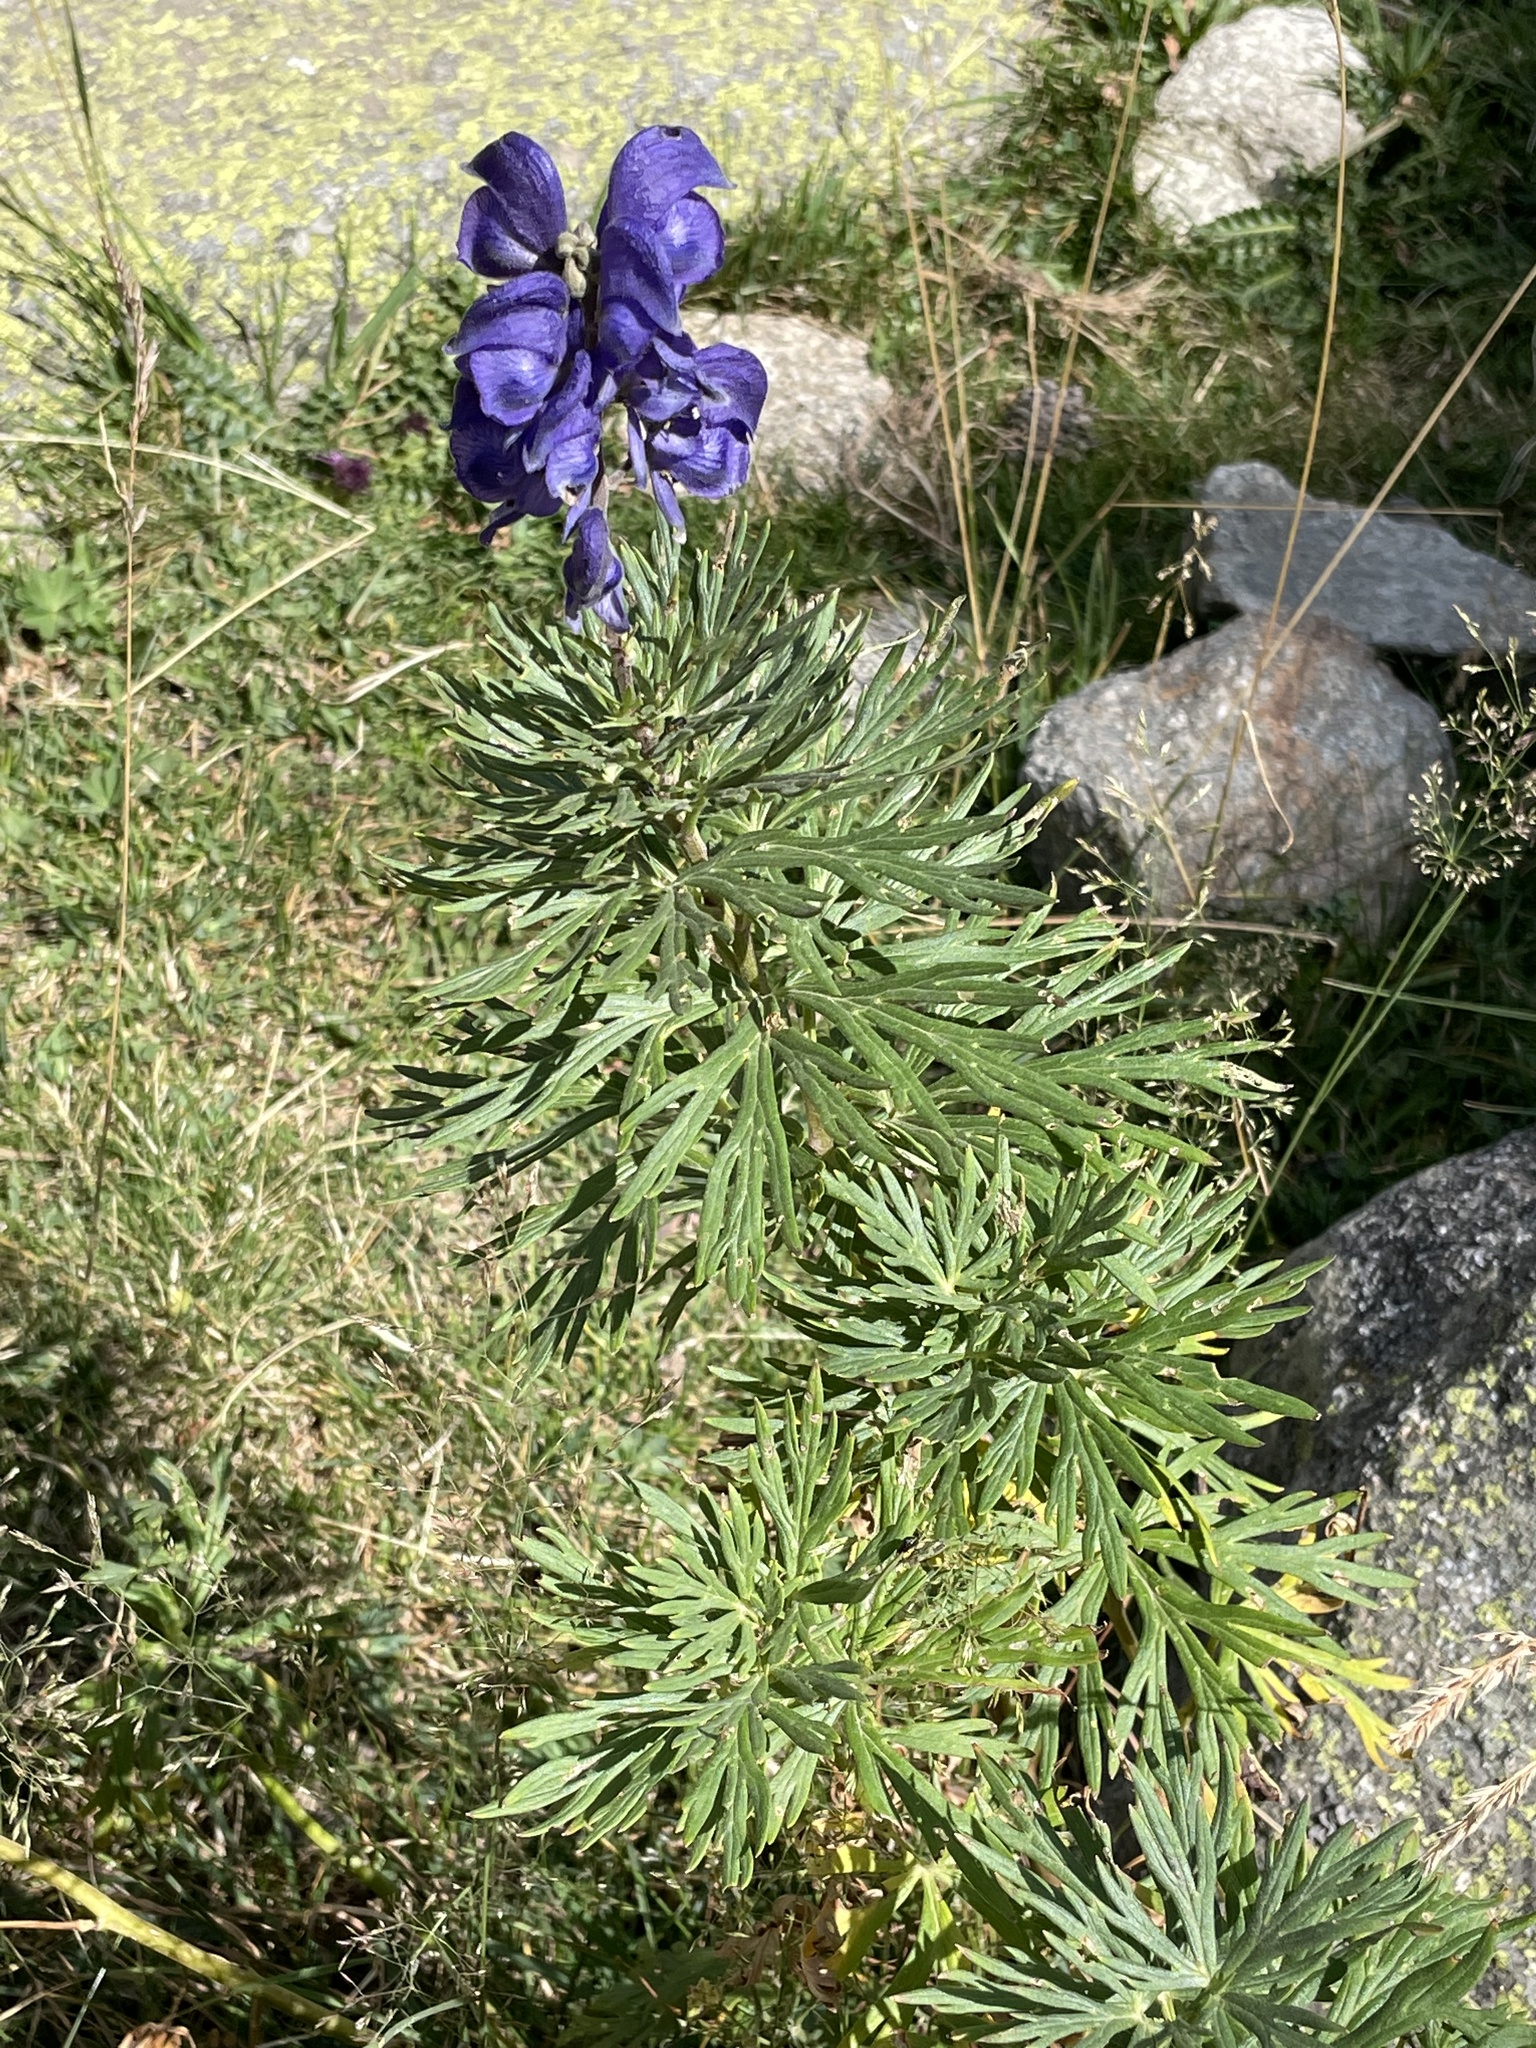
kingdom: Plantae
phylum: Tracheophyta
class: Magnoliopsida
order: Ranunculales
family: Ranunculaceae
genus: Aconitum
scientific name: Aconitum napellus
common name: Garden monkshood
